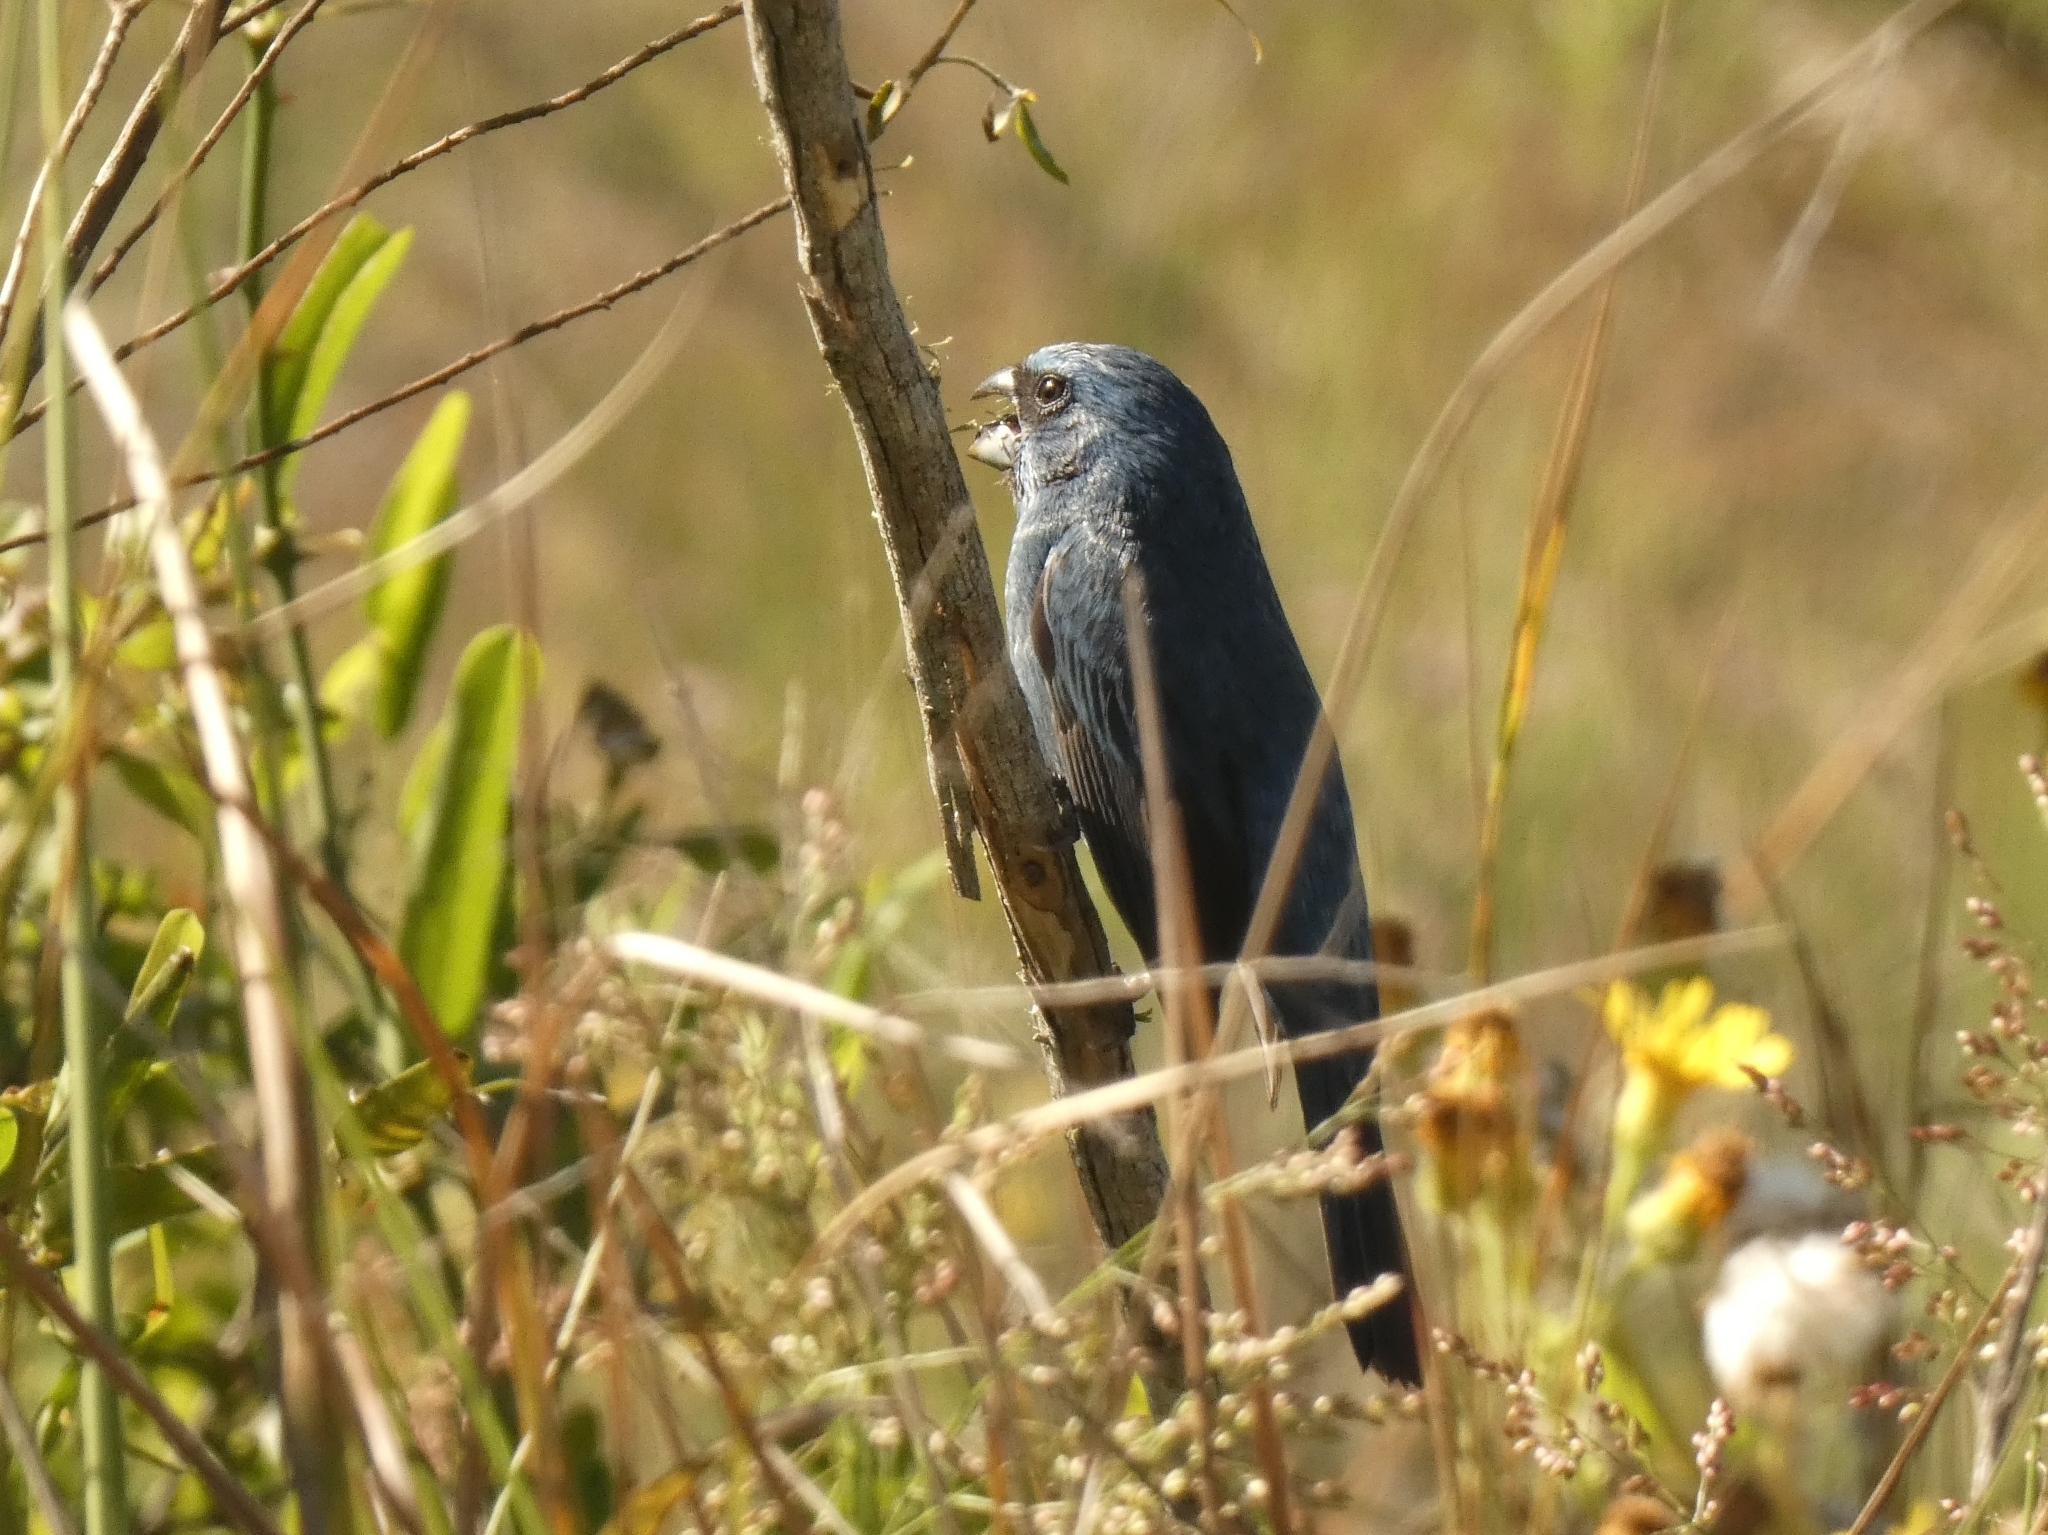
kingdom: Animalia
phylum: Chordata
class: Aves
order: Passeriformes
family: Cardinalidae
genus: Cyanoloxia
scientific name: Cyanoloxia glaucocaerulea
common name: Glaucous-blue grosbeak
